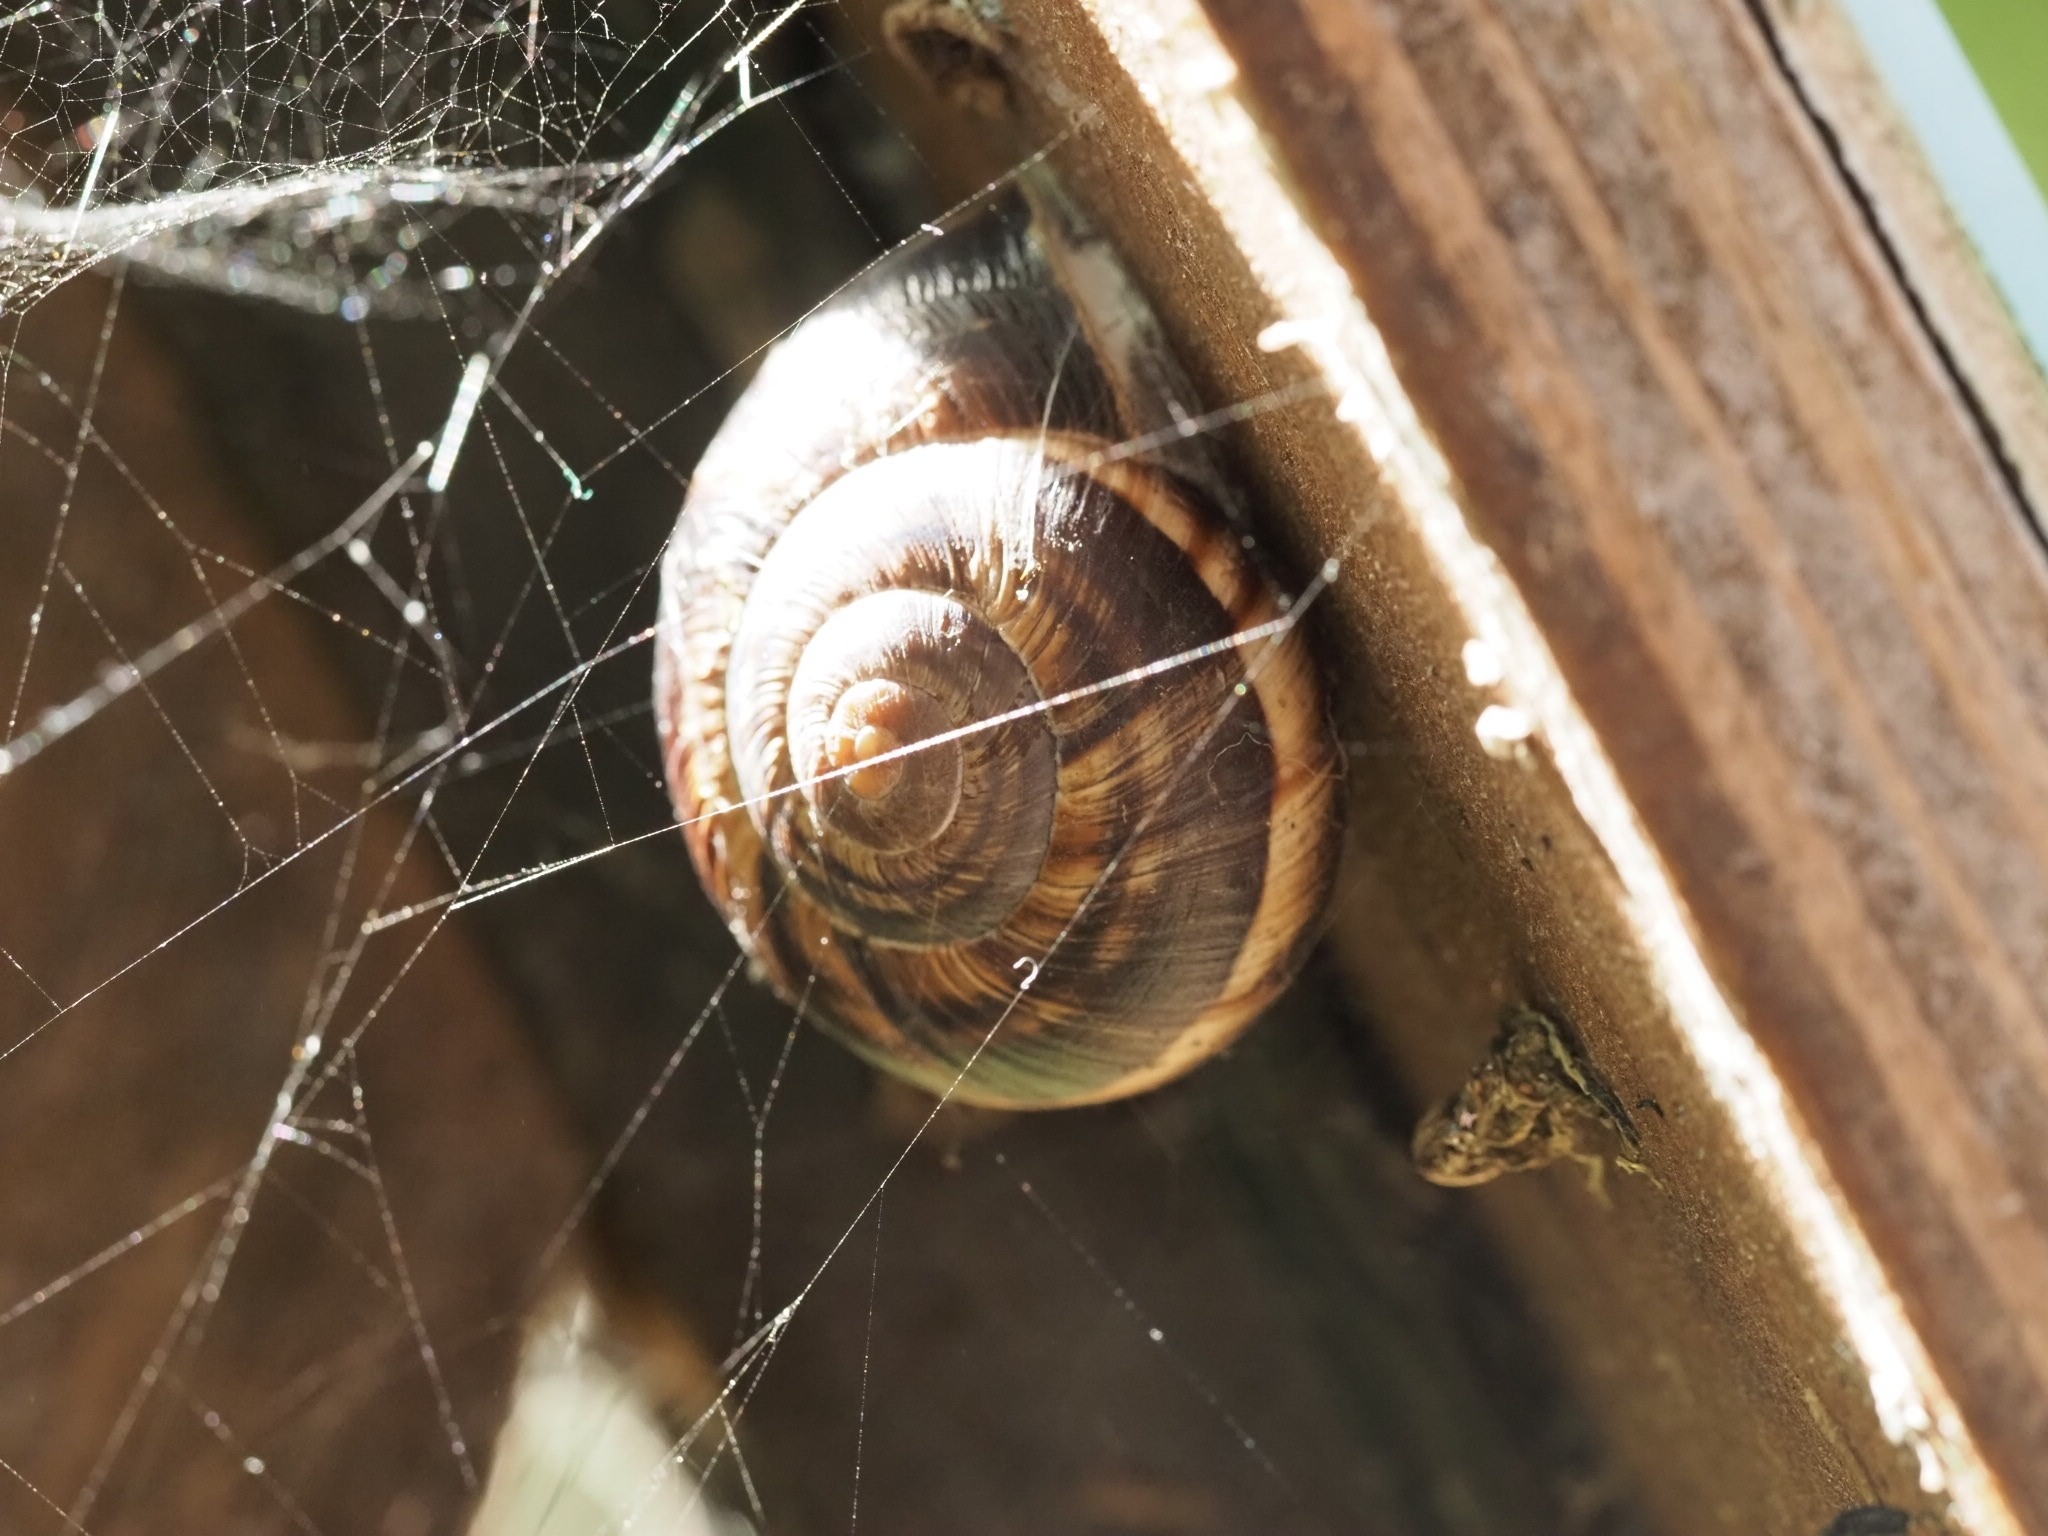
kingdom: Animalia
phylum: Mollusca
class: Gastropoda
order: Stylommatophora
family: Helicidae
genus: Helix
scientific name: Helix lucorum
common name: Turkish snail
